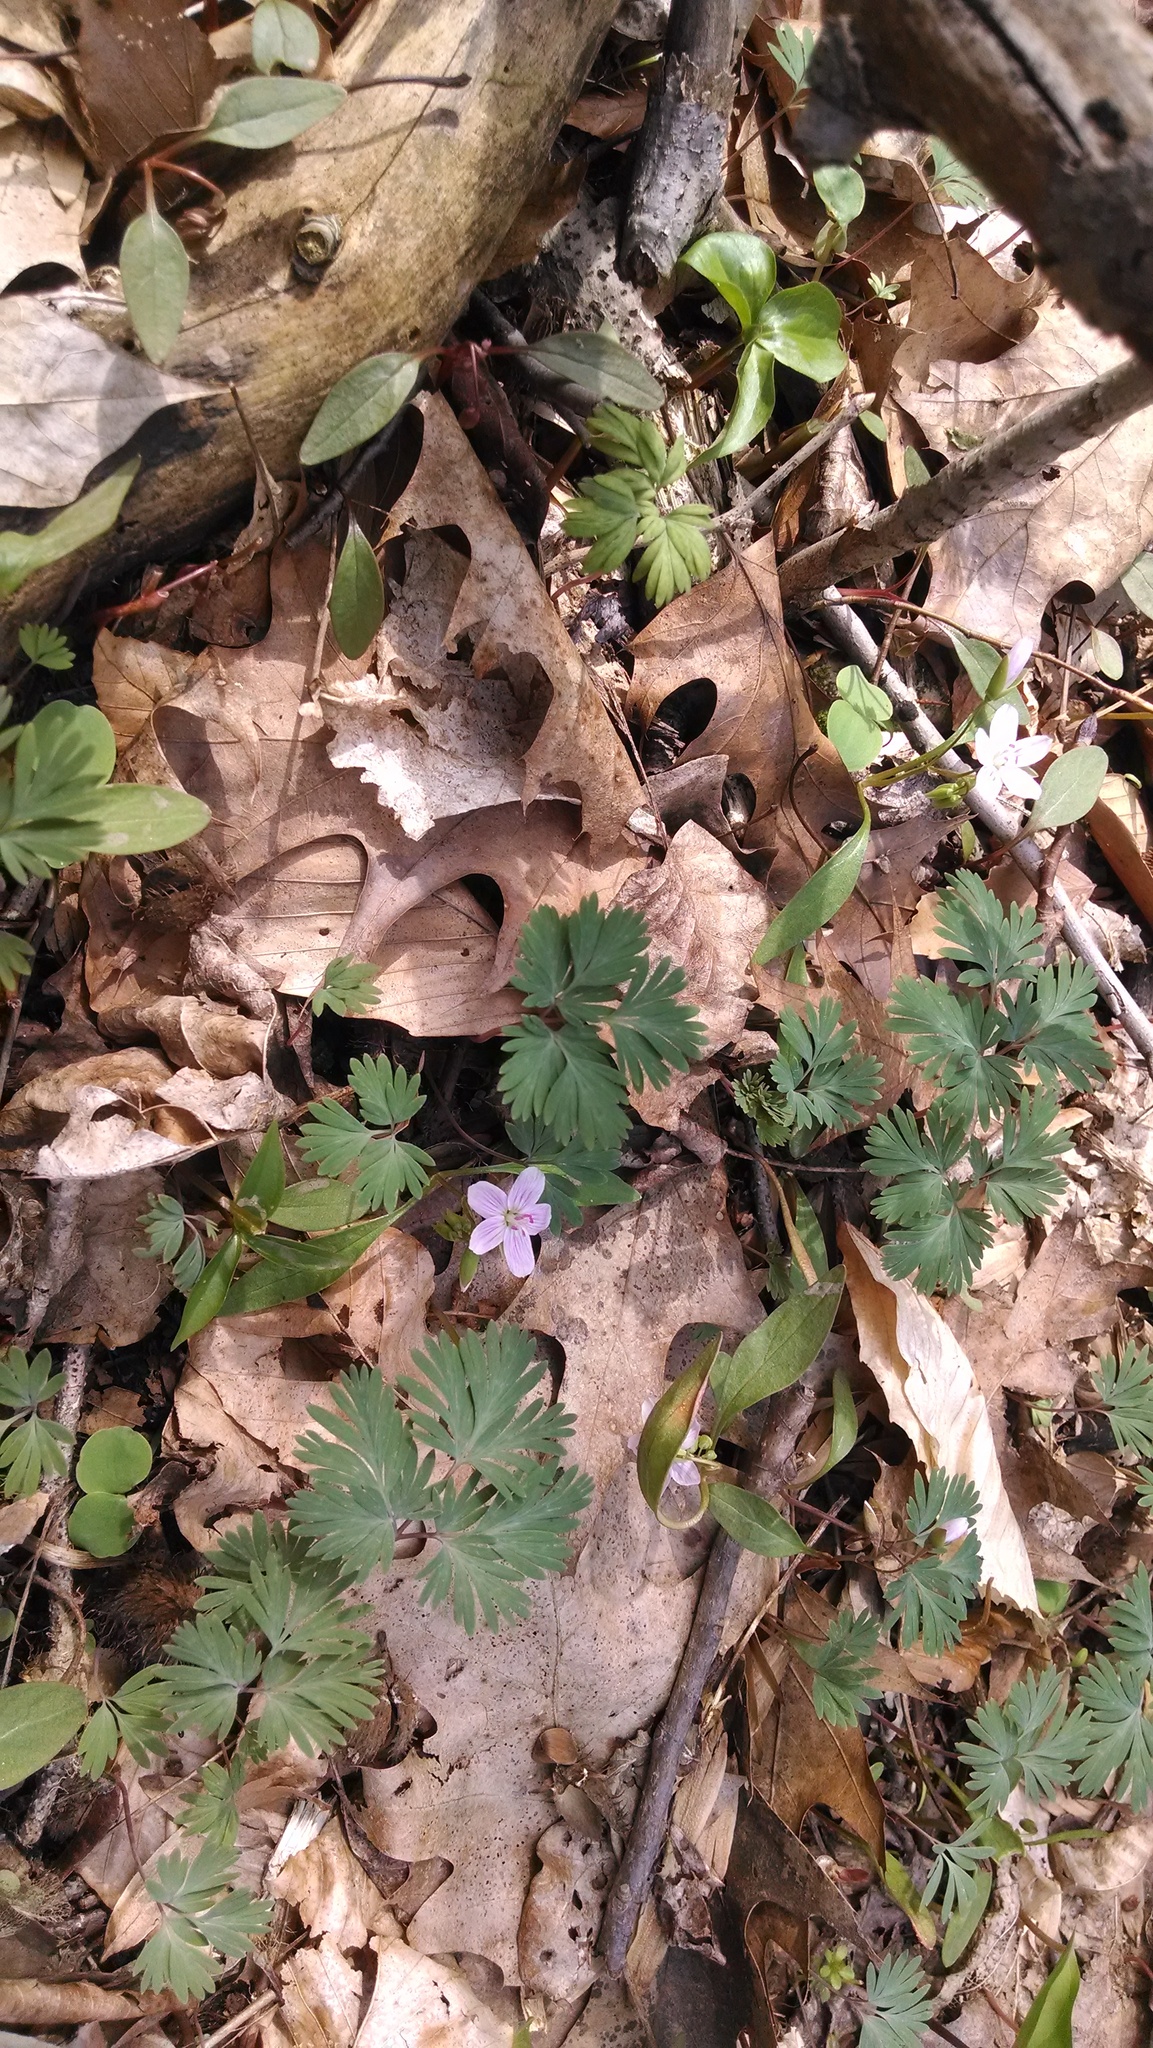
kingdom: Plantae
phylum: Tracheophyta
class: Magnoliopsida
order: Caryophyllales
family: Montiaceae
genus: Claytonia
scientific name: Claytonia caroliniana
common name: Carolina spring beauty
